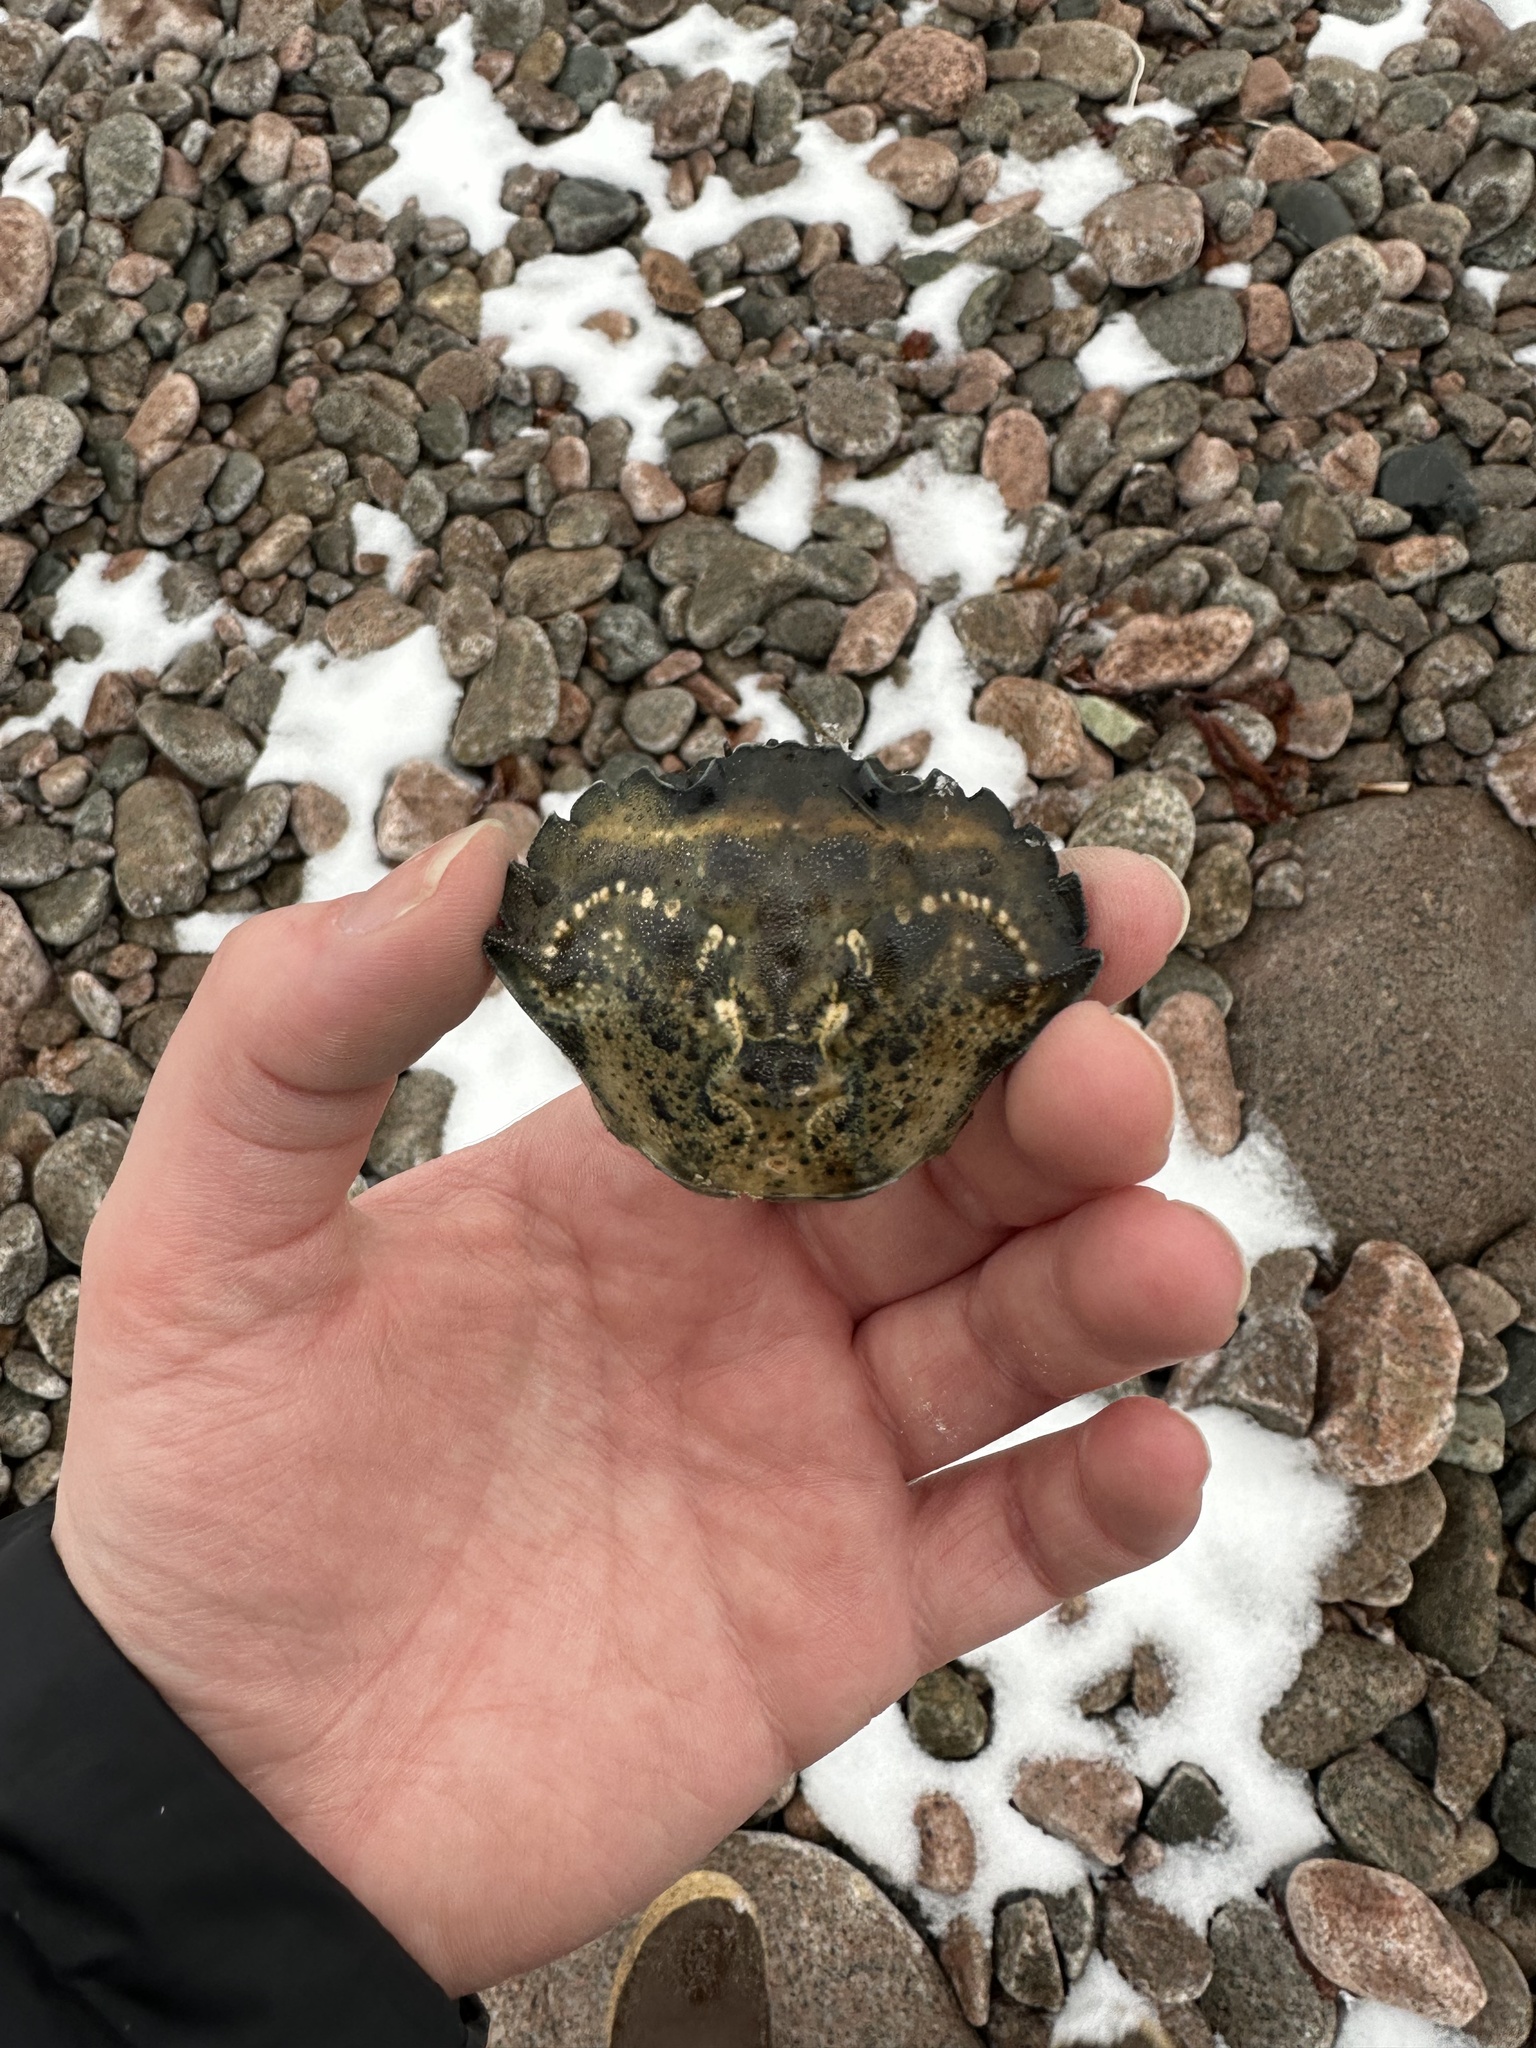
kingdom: Animalia
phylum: Arthropoda
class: Malacostraca
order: Decapoda
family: Carcinidae
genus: Carcinus
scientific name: Carcinus maenas
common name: European green crab
